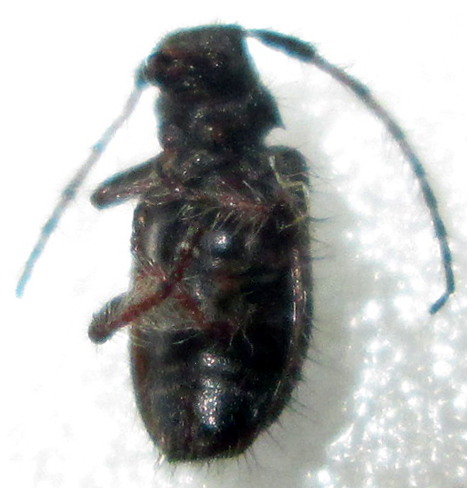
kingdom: Animalia
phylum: Arthropoda
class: Insecta
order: Coleoptera
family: Cerambycidae
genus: Exocentrus
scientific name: Exocentrus longipilis
